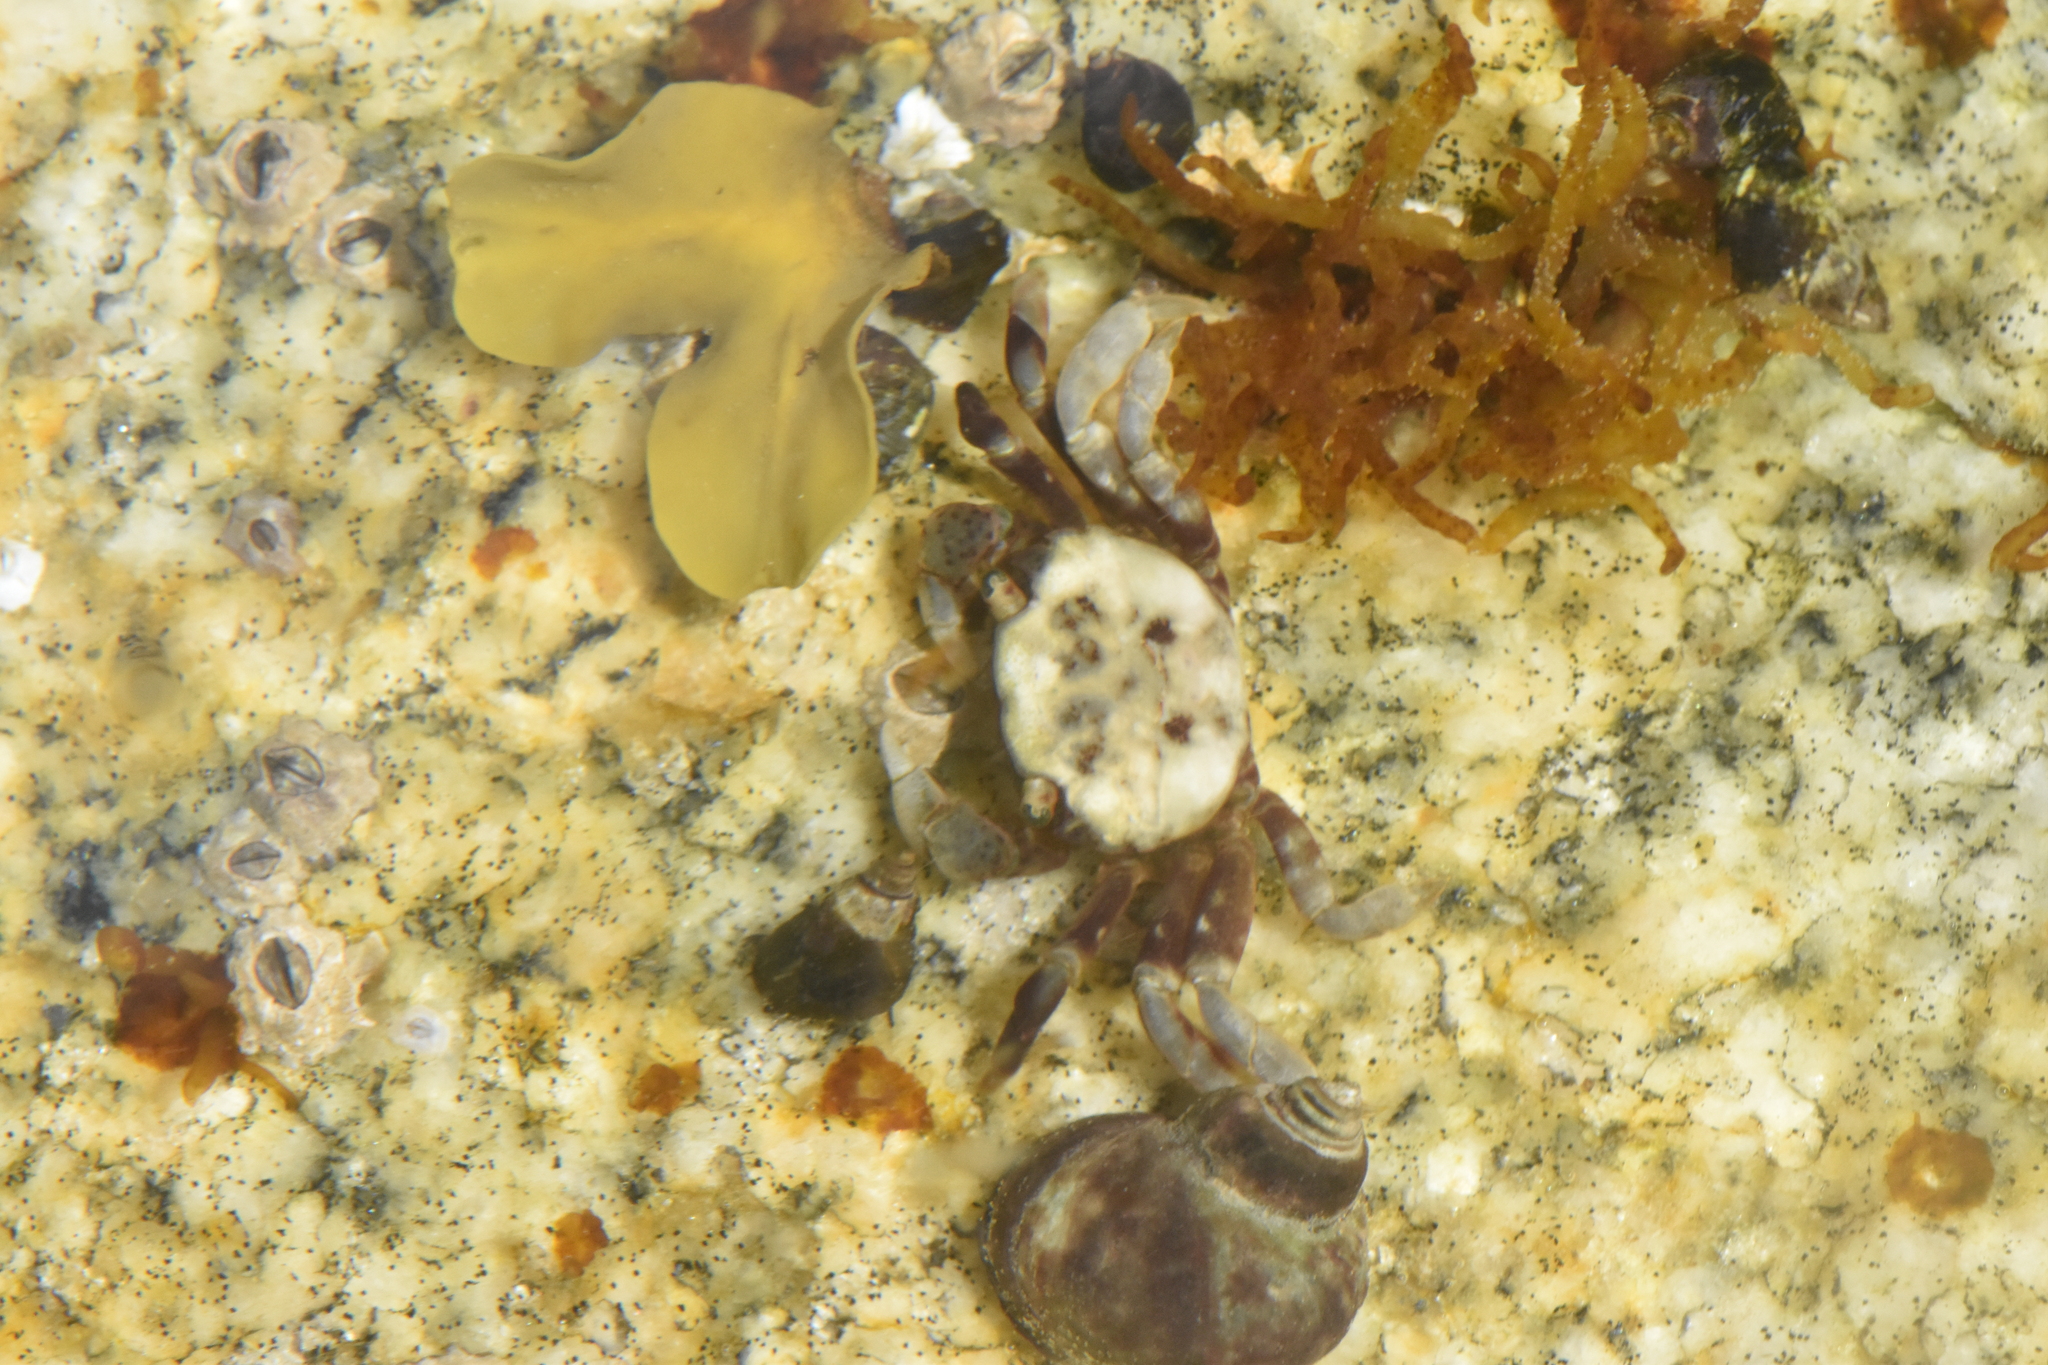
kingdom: Animalia
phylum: Arthropoda
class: Malacostraca
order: Decapoda
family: Varunidae
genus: Hemigrapsus
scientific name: Hemigrapsus nudus
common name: Purple shore crab
